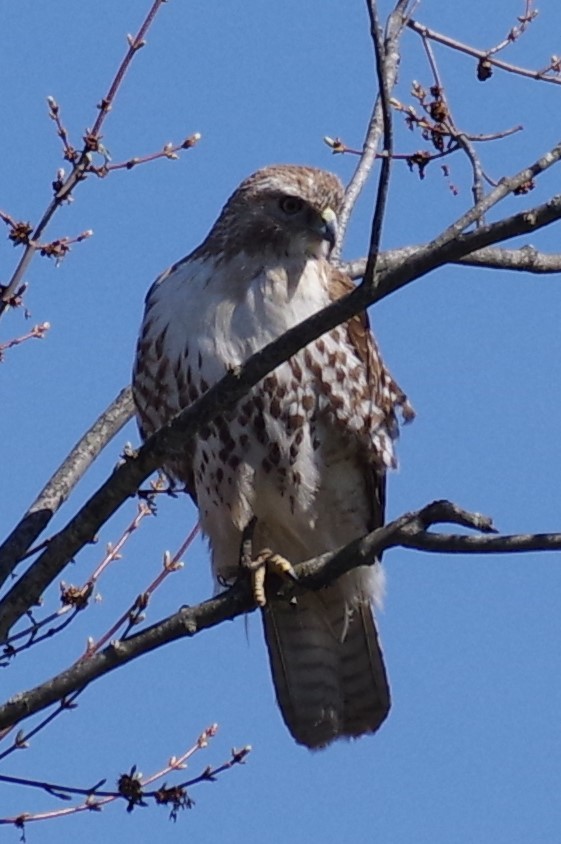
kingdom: Animalia
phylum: Chordata
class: Aves
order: Accipitriformes
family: Accipitridae
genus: Buteo
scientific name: Buteo jamaicensis
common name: Red-tailed hawk
